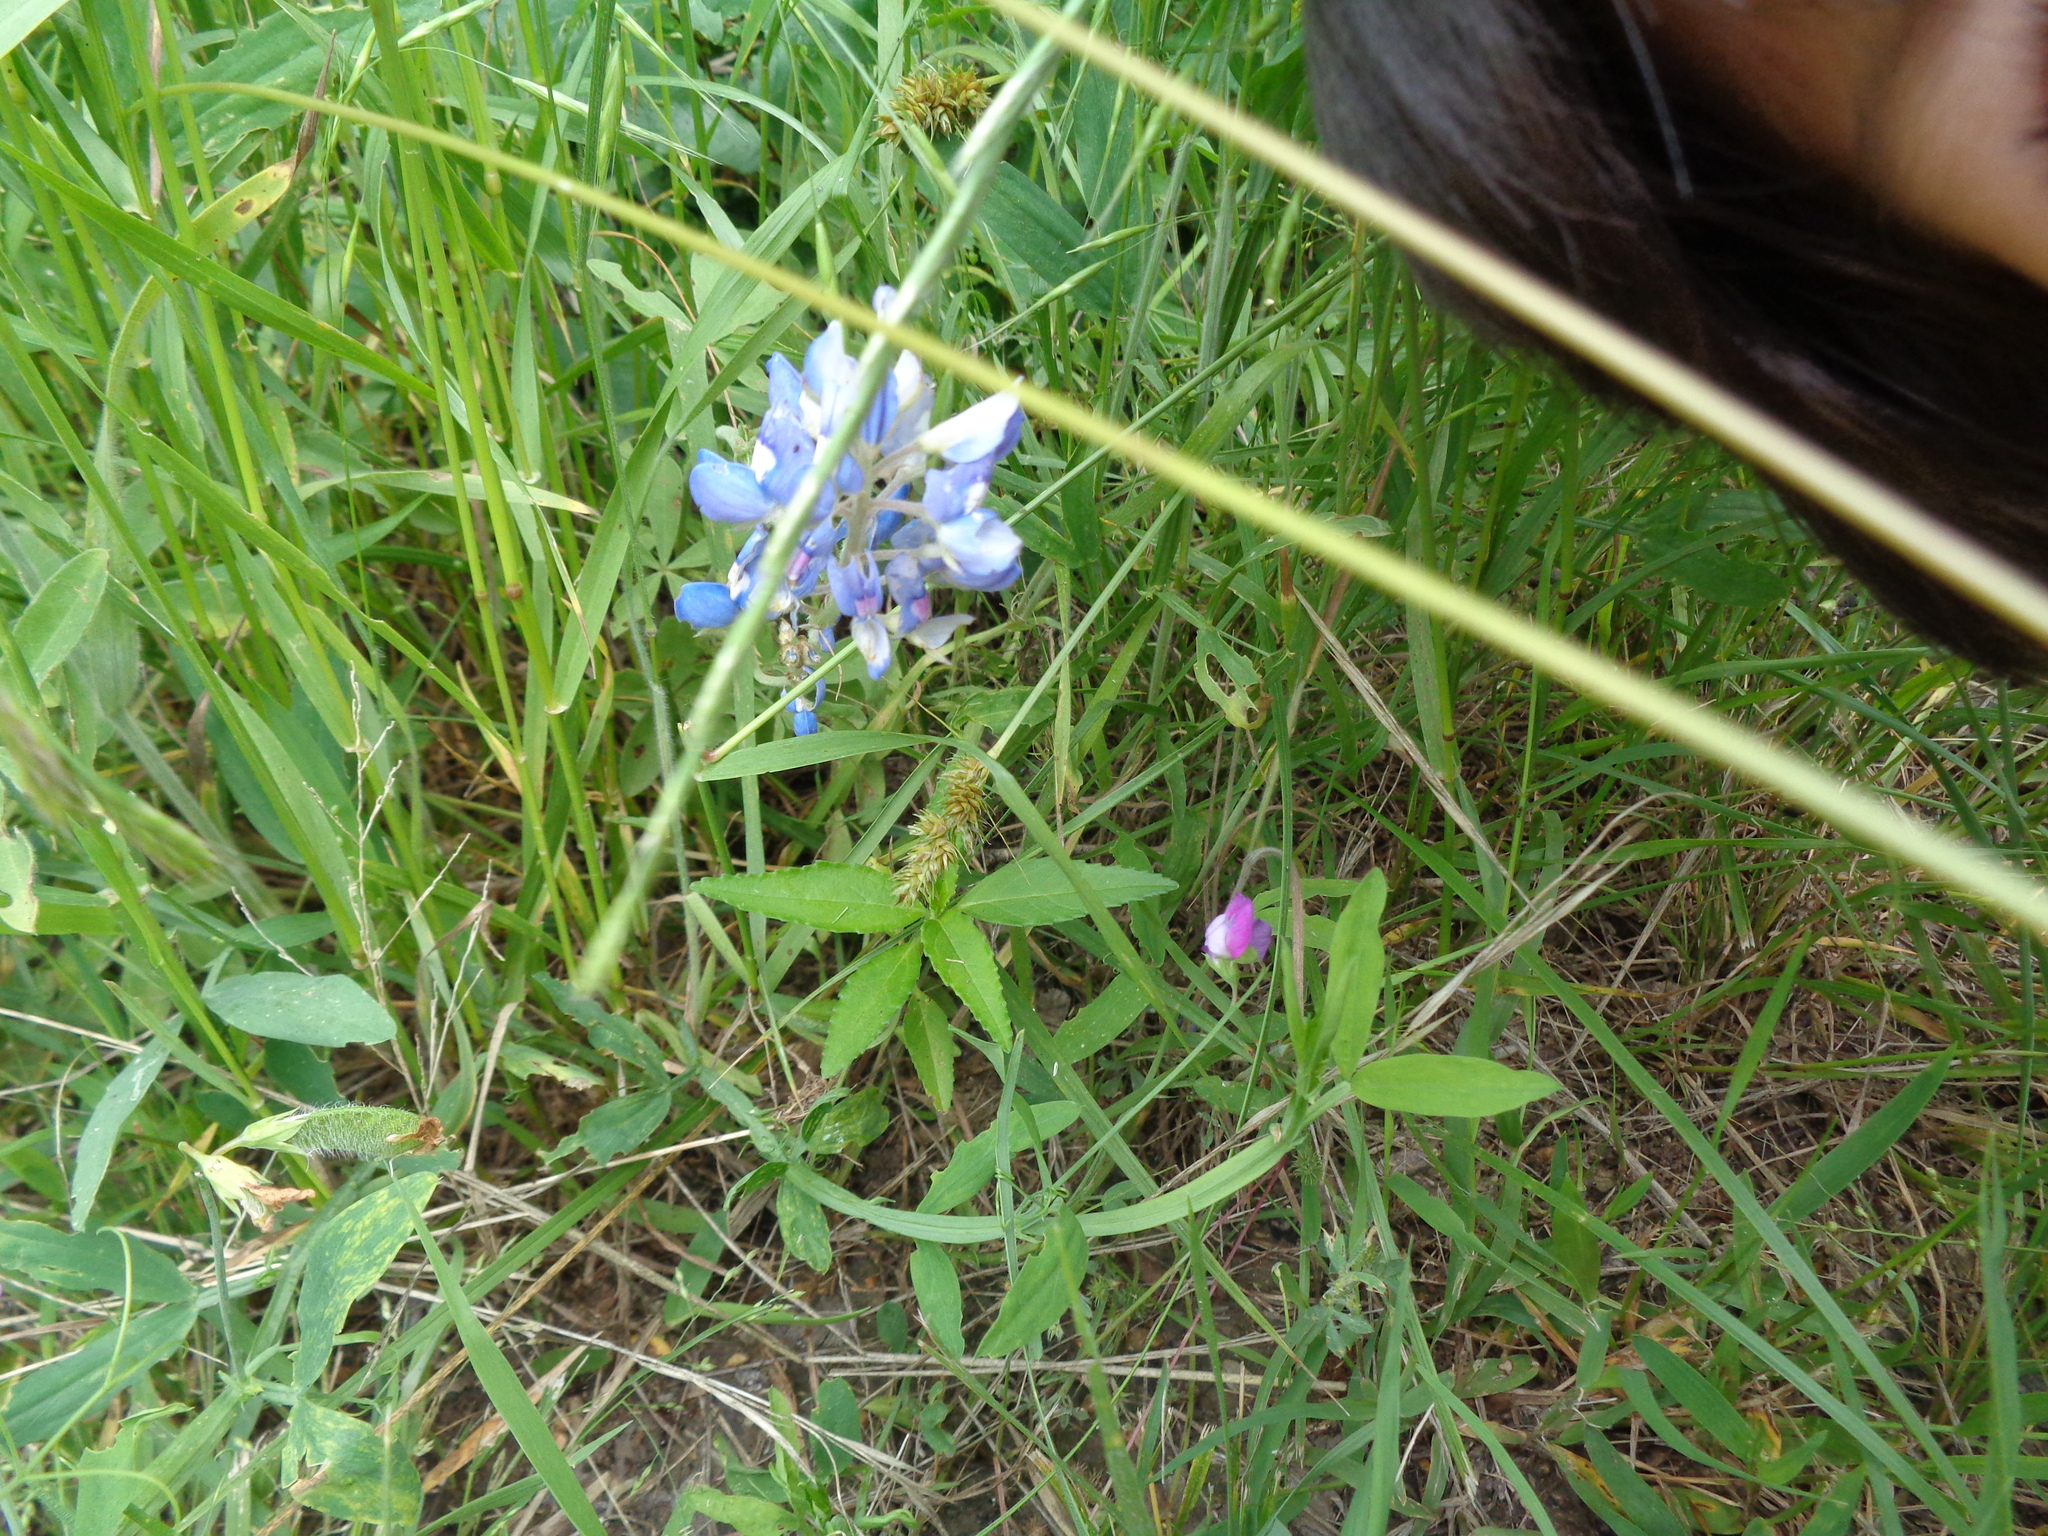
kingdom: Plantae
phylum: Tracheophyta
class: Magnoliopsida
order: Fabales
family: Fabaceae
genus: Lupinus
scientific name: Lupinus texensis
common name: Texas bluebonnet
